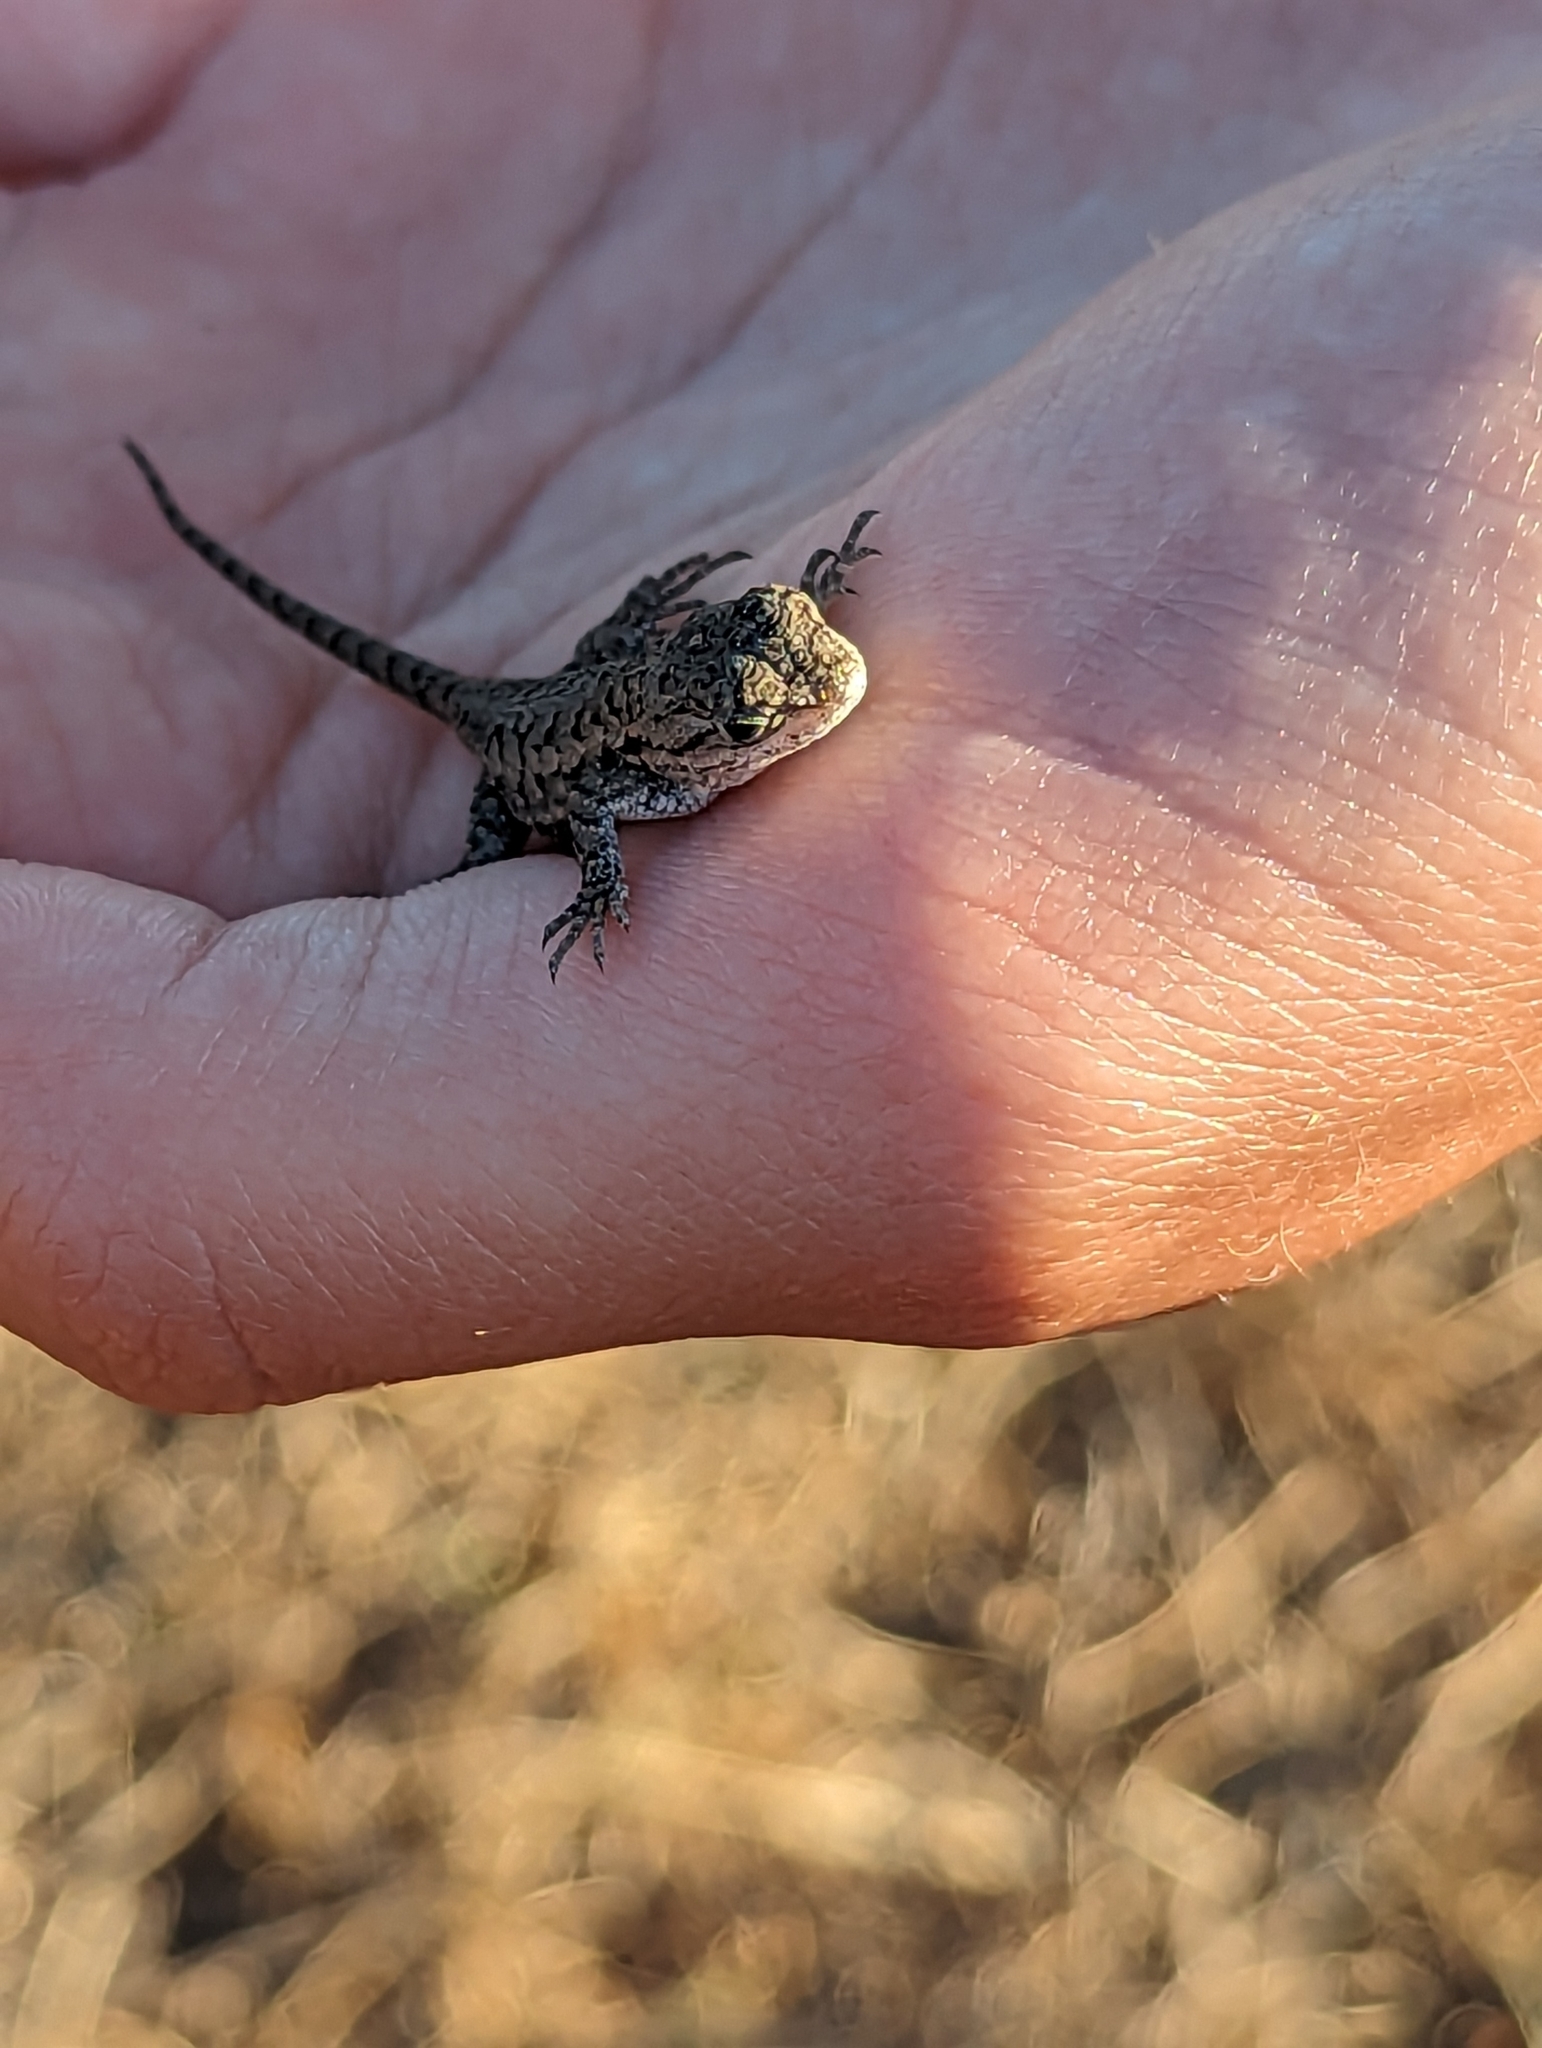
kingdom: Animalia
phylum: Chordata
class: Squamata
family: Phrynosomatidae
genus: Sceloporus
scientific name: Sceloporus occidentalis
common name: Western fence lizard
